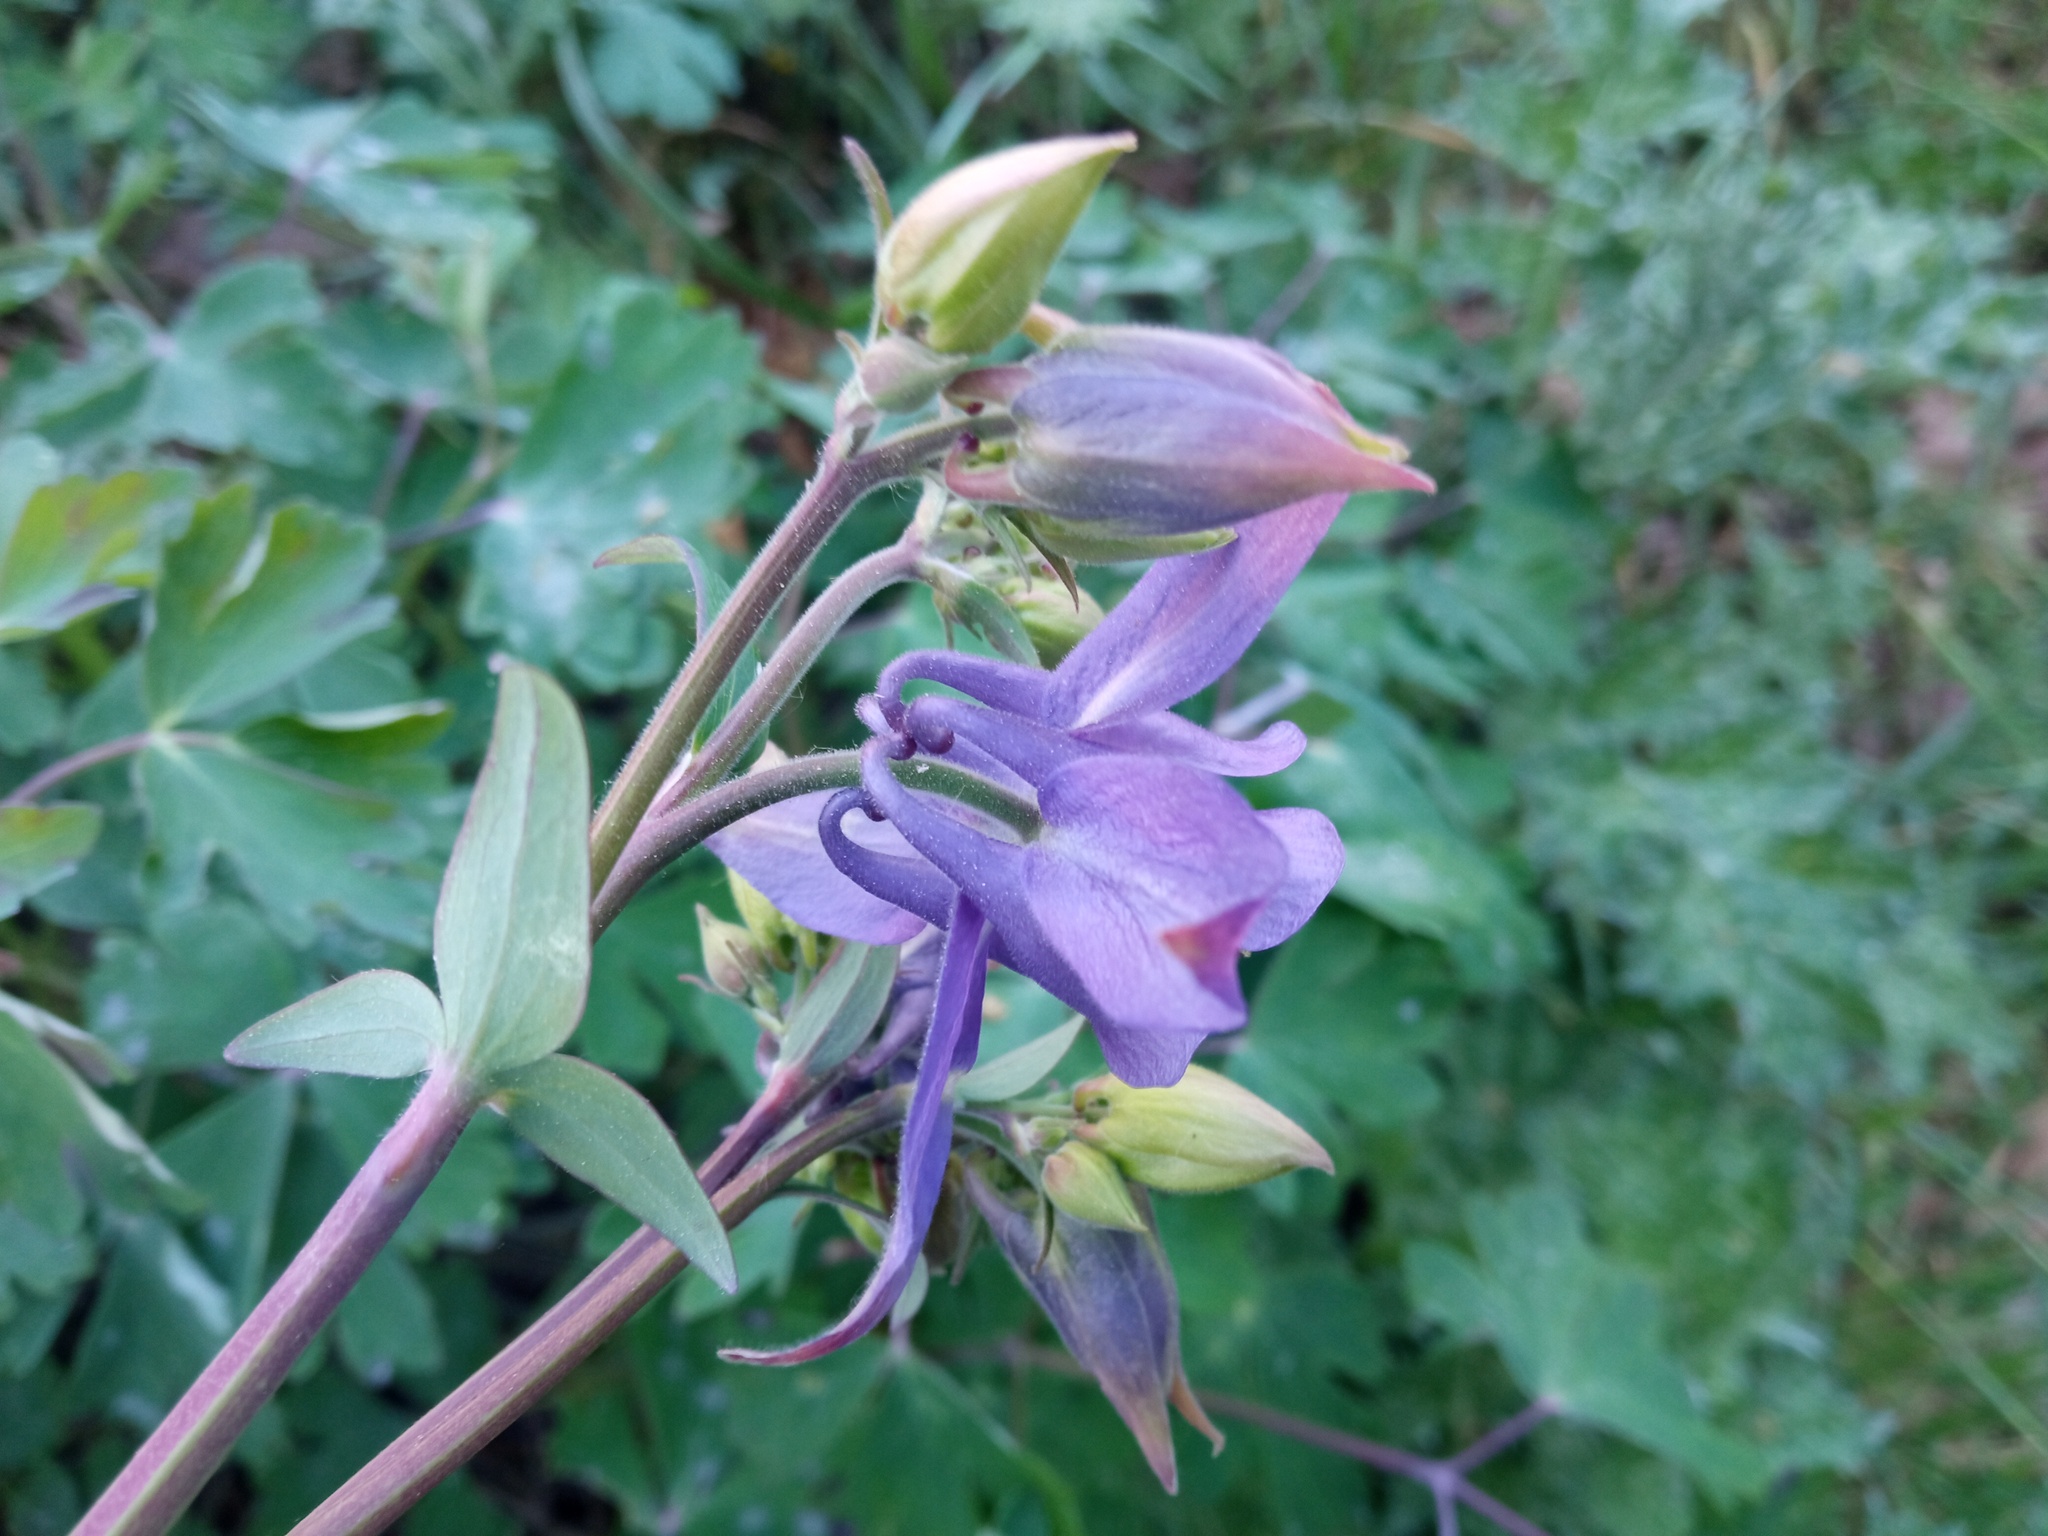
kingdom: Plantae
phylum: Tracheophyta
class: Magnoliopsida
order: Ranunculales
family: Ranunculaceae
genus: Aquilegia
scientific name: Aquilegia vulgaris
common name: Columbine
